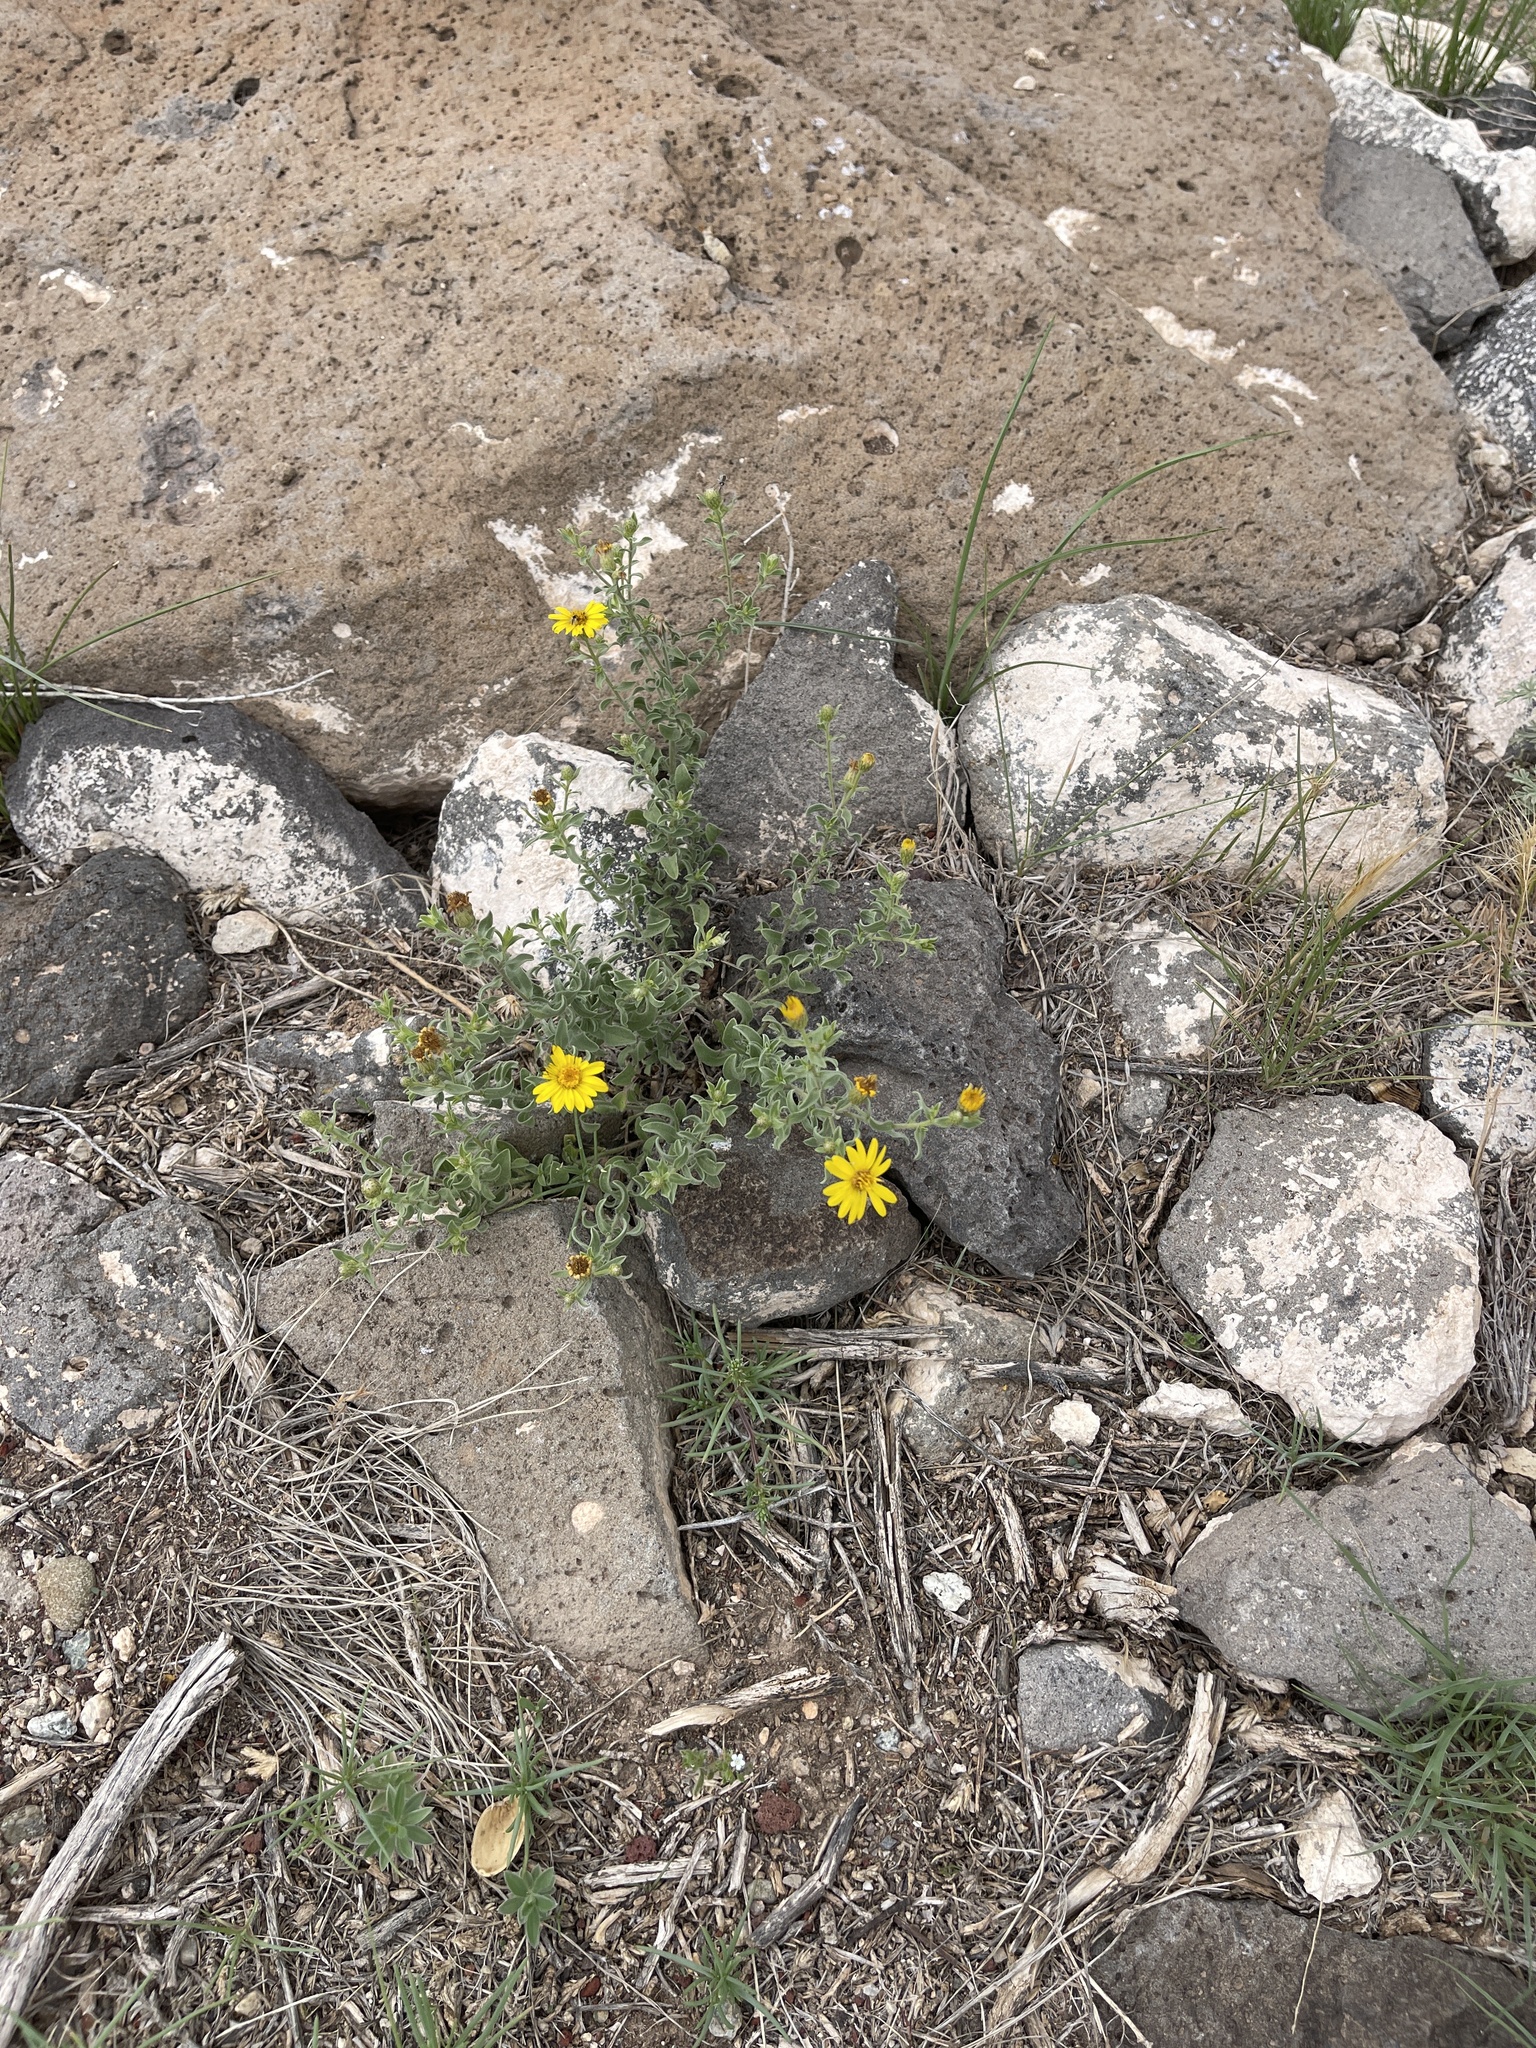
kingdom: Plantae
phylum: Tracheophyta
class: Magnoliopsida
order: Asterales
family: Asteraceae
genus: Heterotheca
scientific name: Heterotheca hirsutissima
